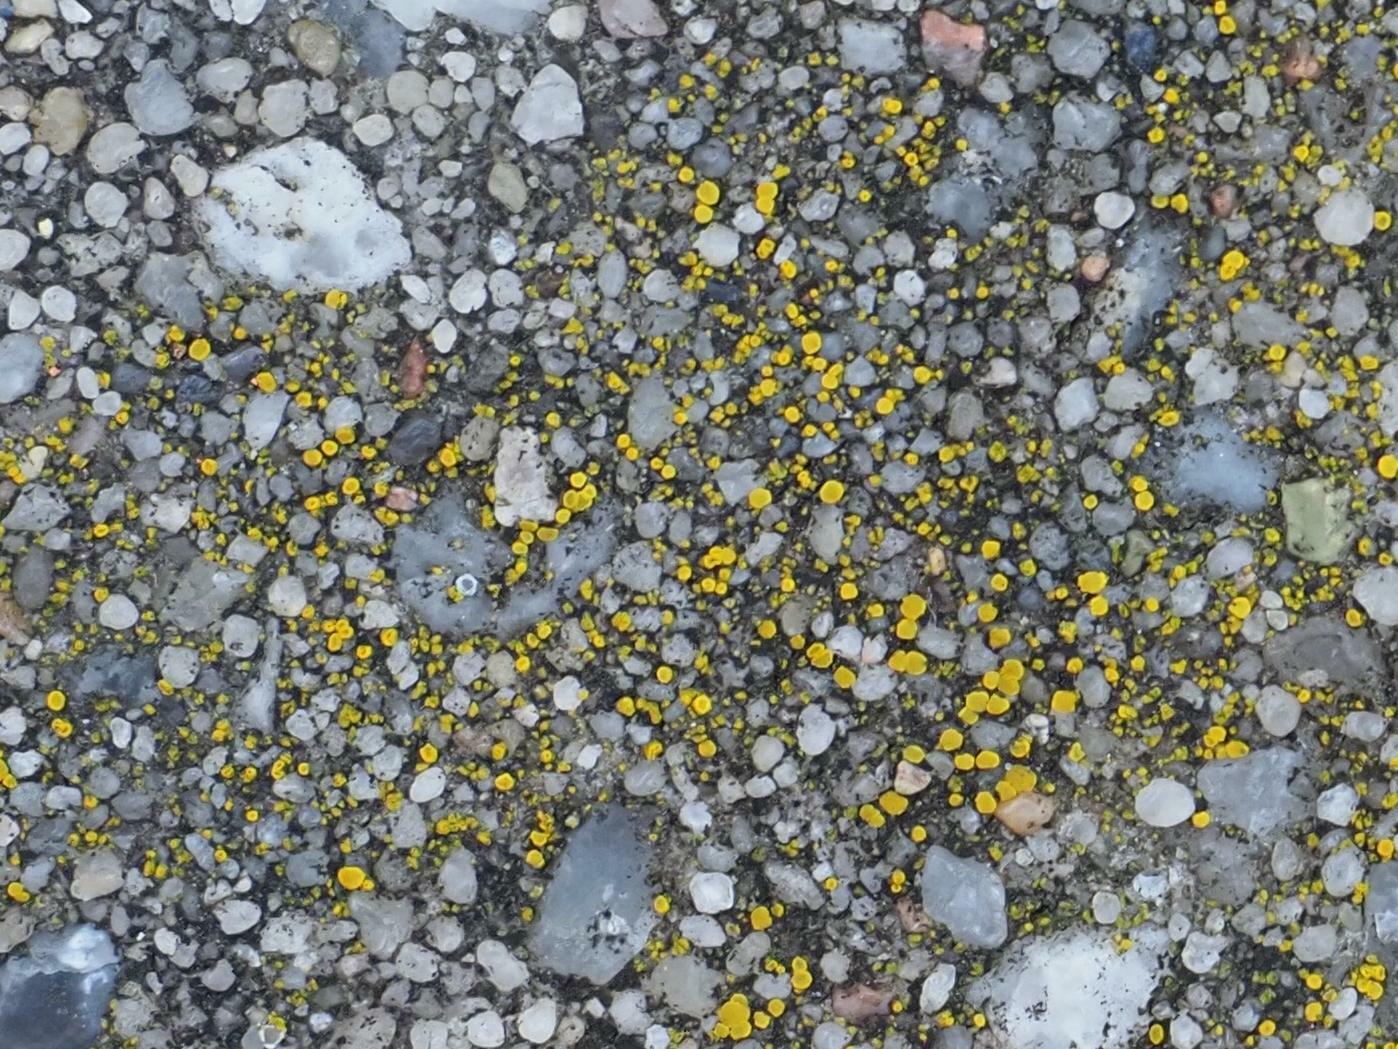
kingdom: Fungi
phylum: Ascomycota
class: Candelariomycetes
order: Candelariales
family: Candelariaceae
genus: Candelariella
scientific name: Candelariella aurella
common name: Hidden goldspeck lichen
